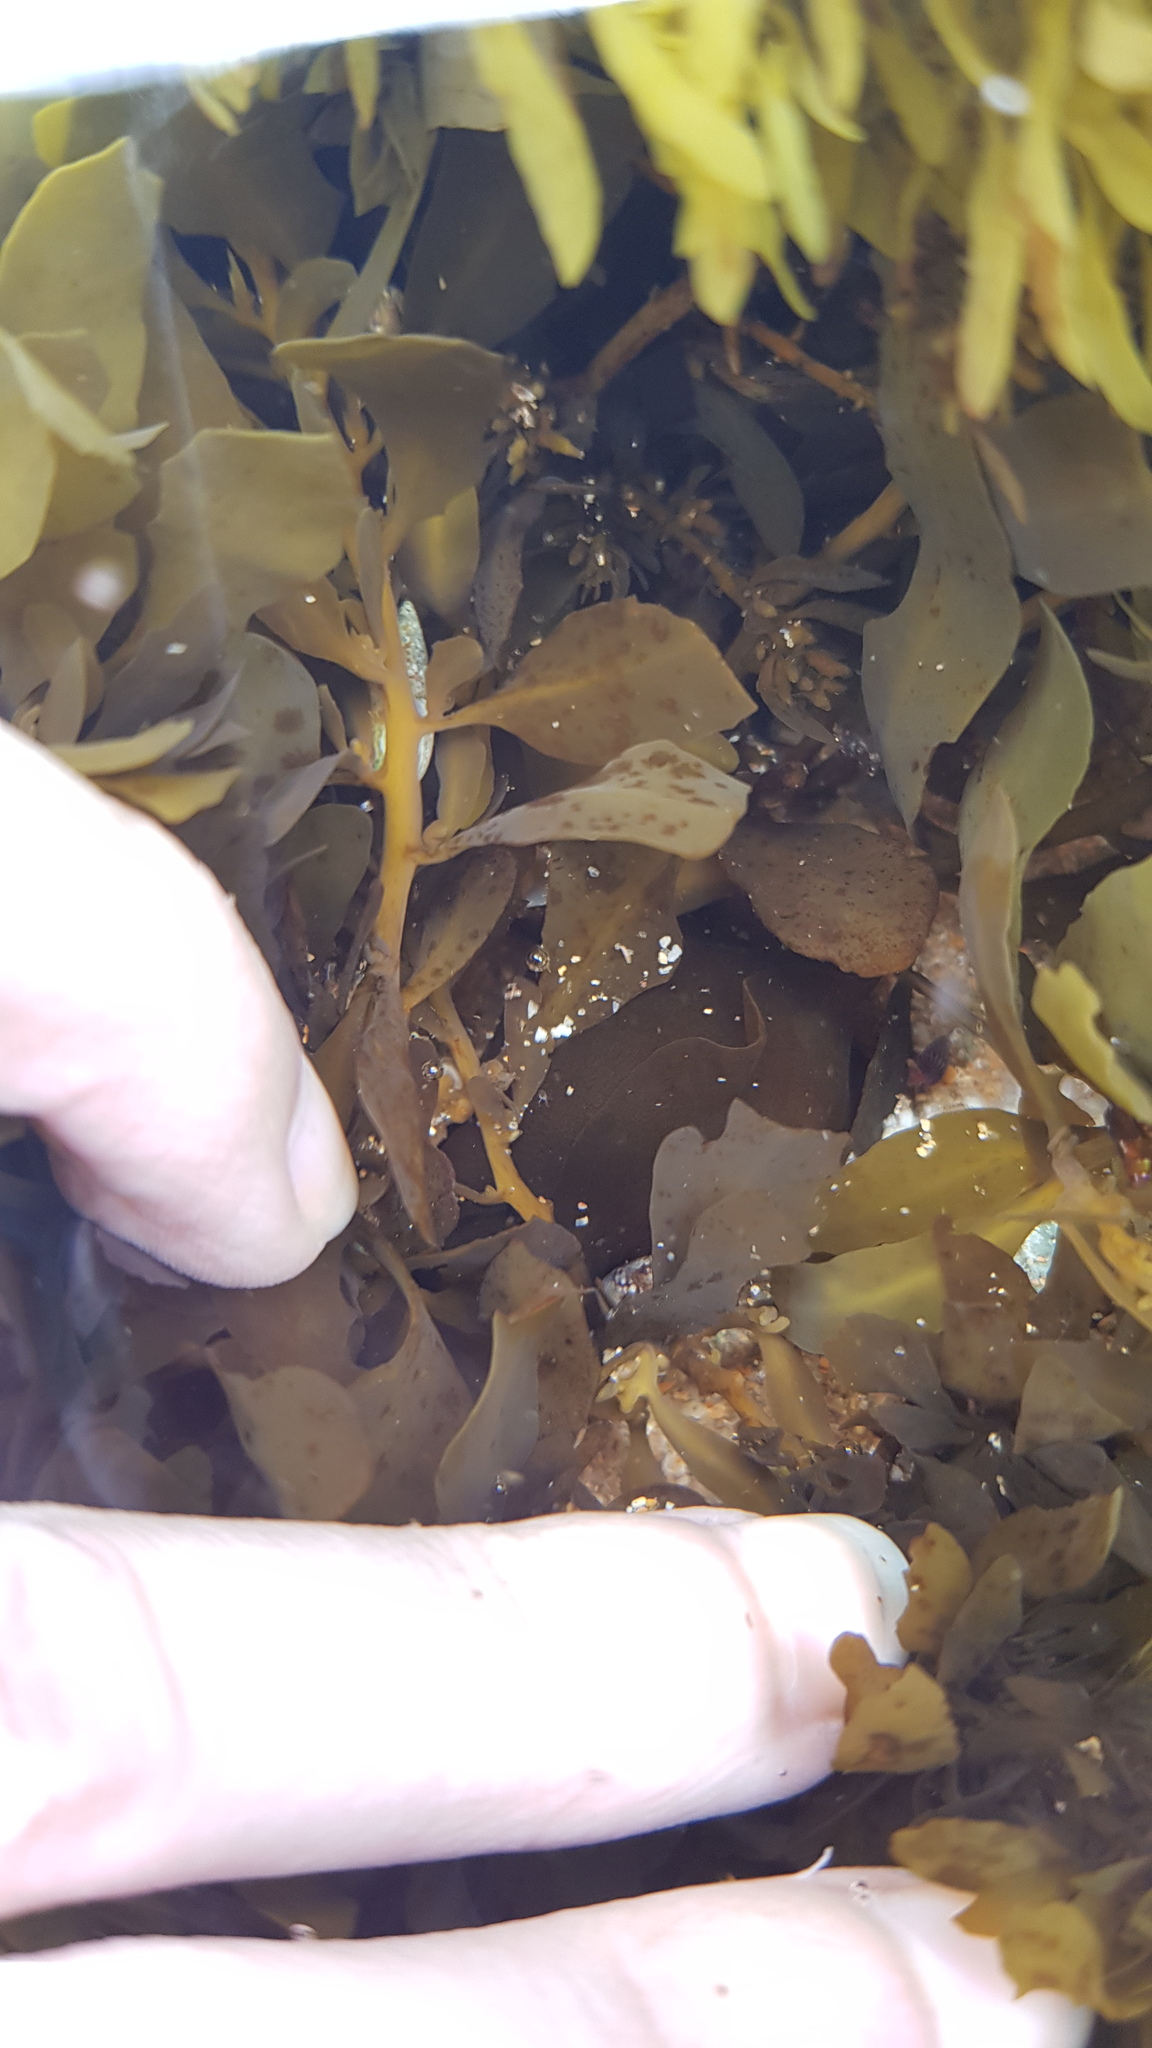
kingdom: Animalia
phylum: Mollusca
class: Gastropoda
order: Aplysiida
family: Aplysiidae
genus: Aplysia
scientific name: Aplysia juliana
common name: Walking sea hare
